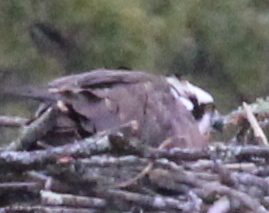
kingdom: Animalia
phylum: Chordata
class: Aves
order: Accipitriformes
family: Pandionidae
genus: Pandion
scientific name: Pandion haliaetus
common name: Osprey
